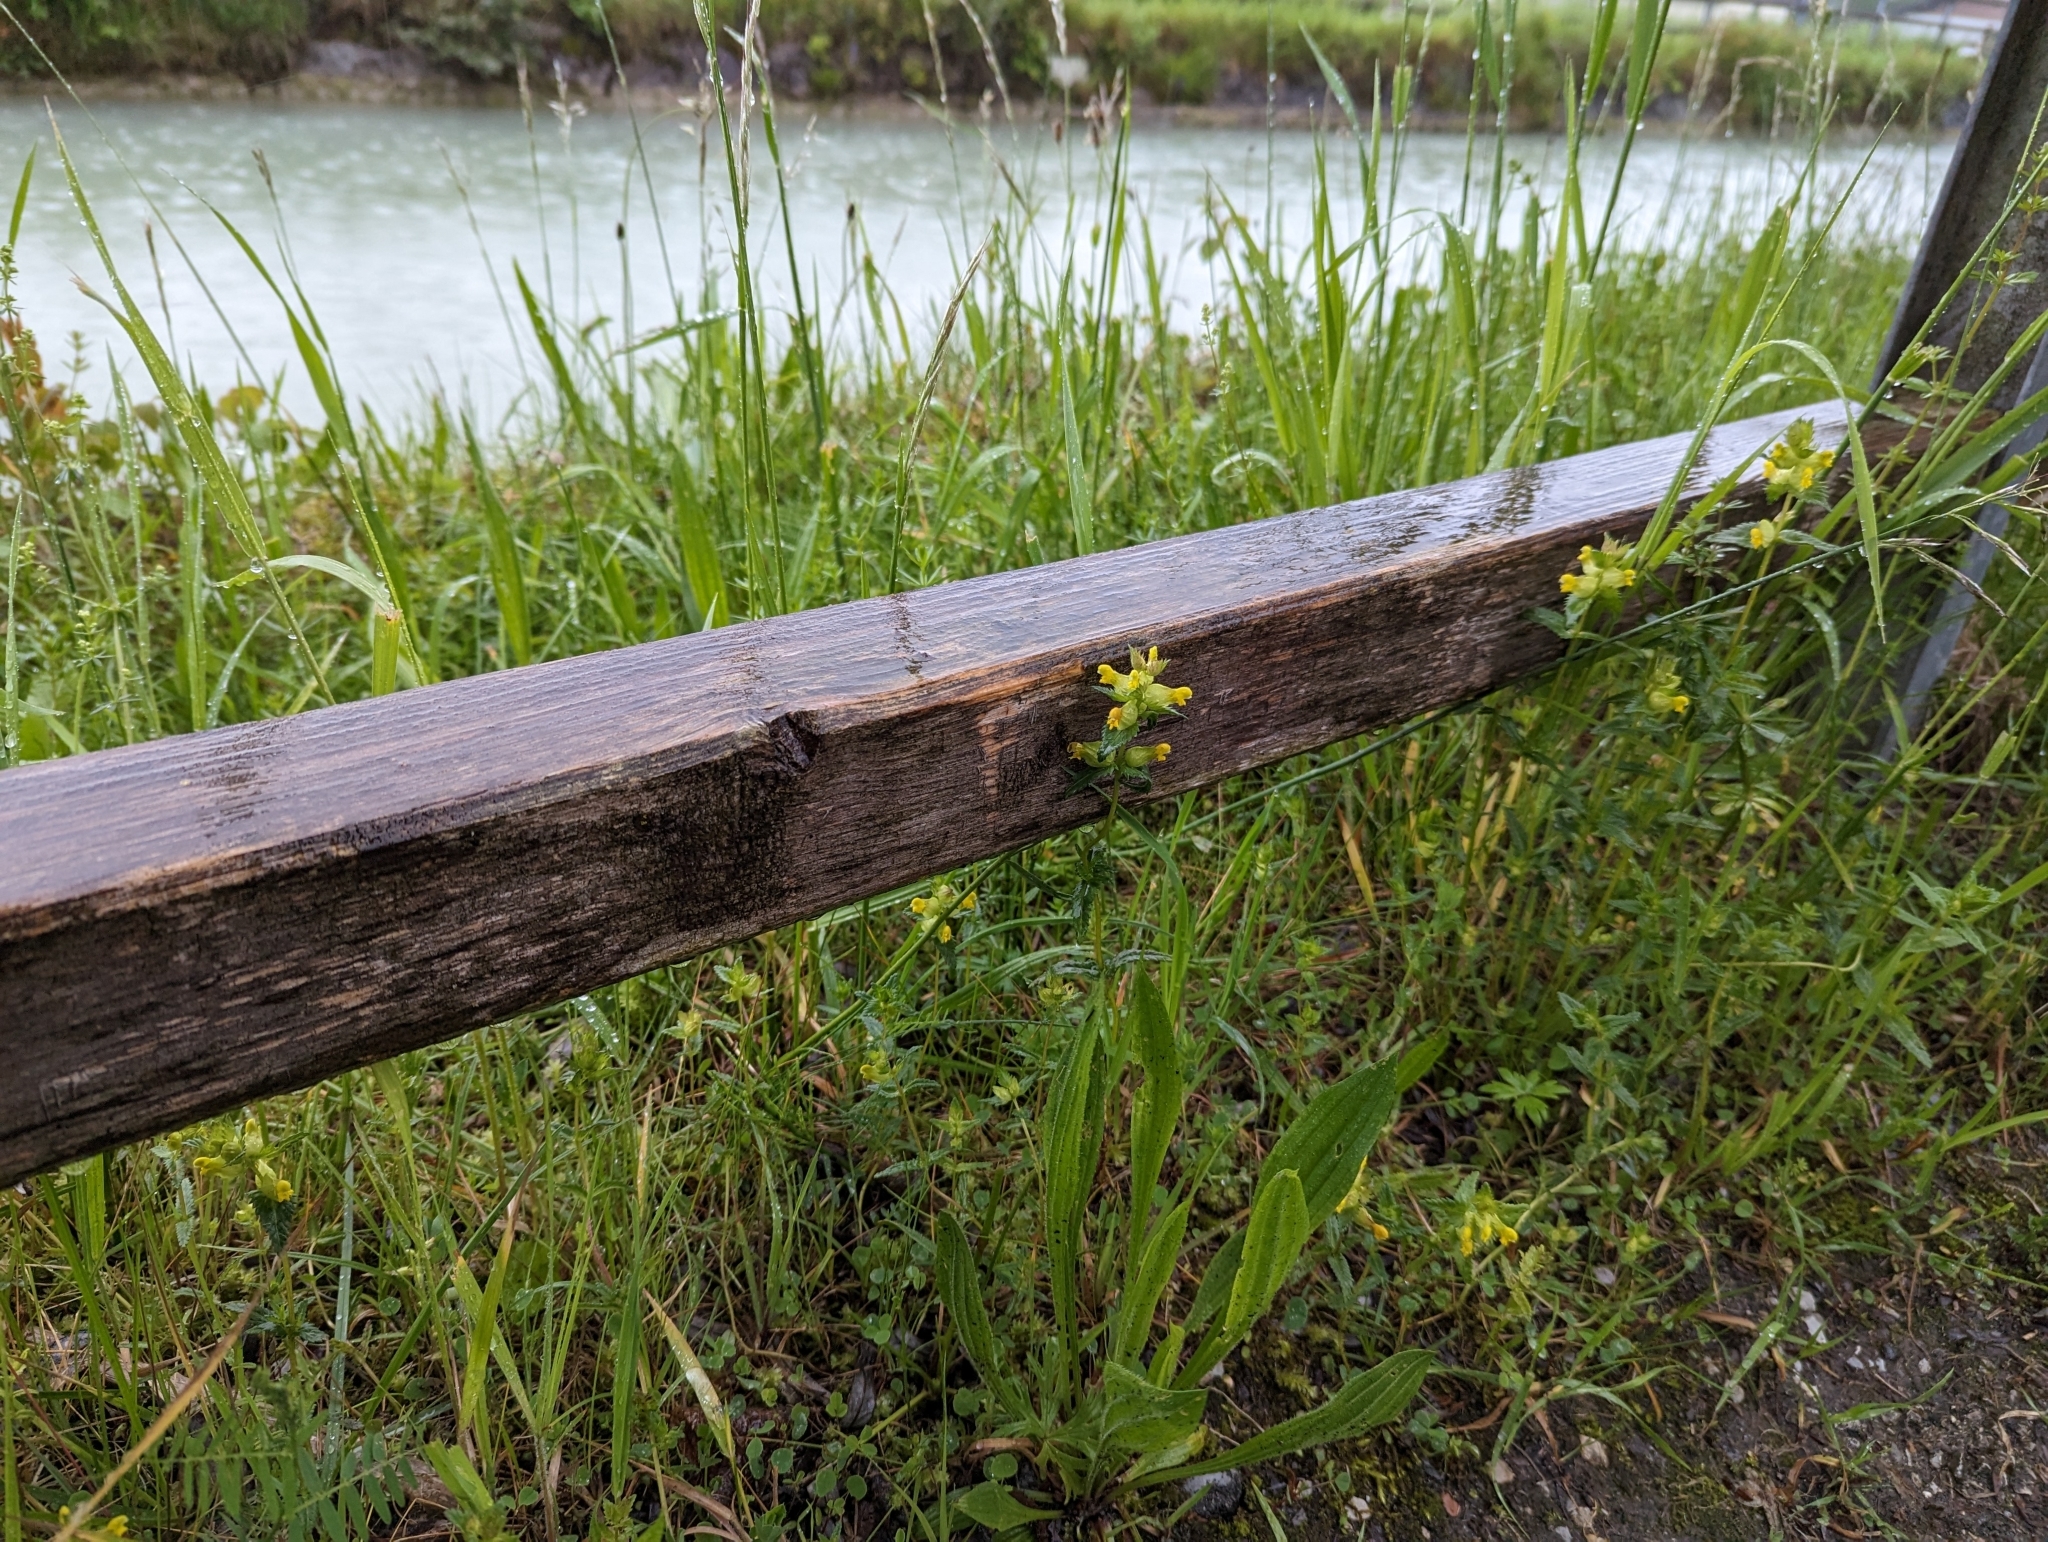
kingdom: Plantae
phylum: Tracheophyta
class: Magnoliopsida
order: Lamiales
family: Orobanchaceae
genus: Rhinanthus
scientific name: Rhinanthus minor
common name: Yellow-rattle
